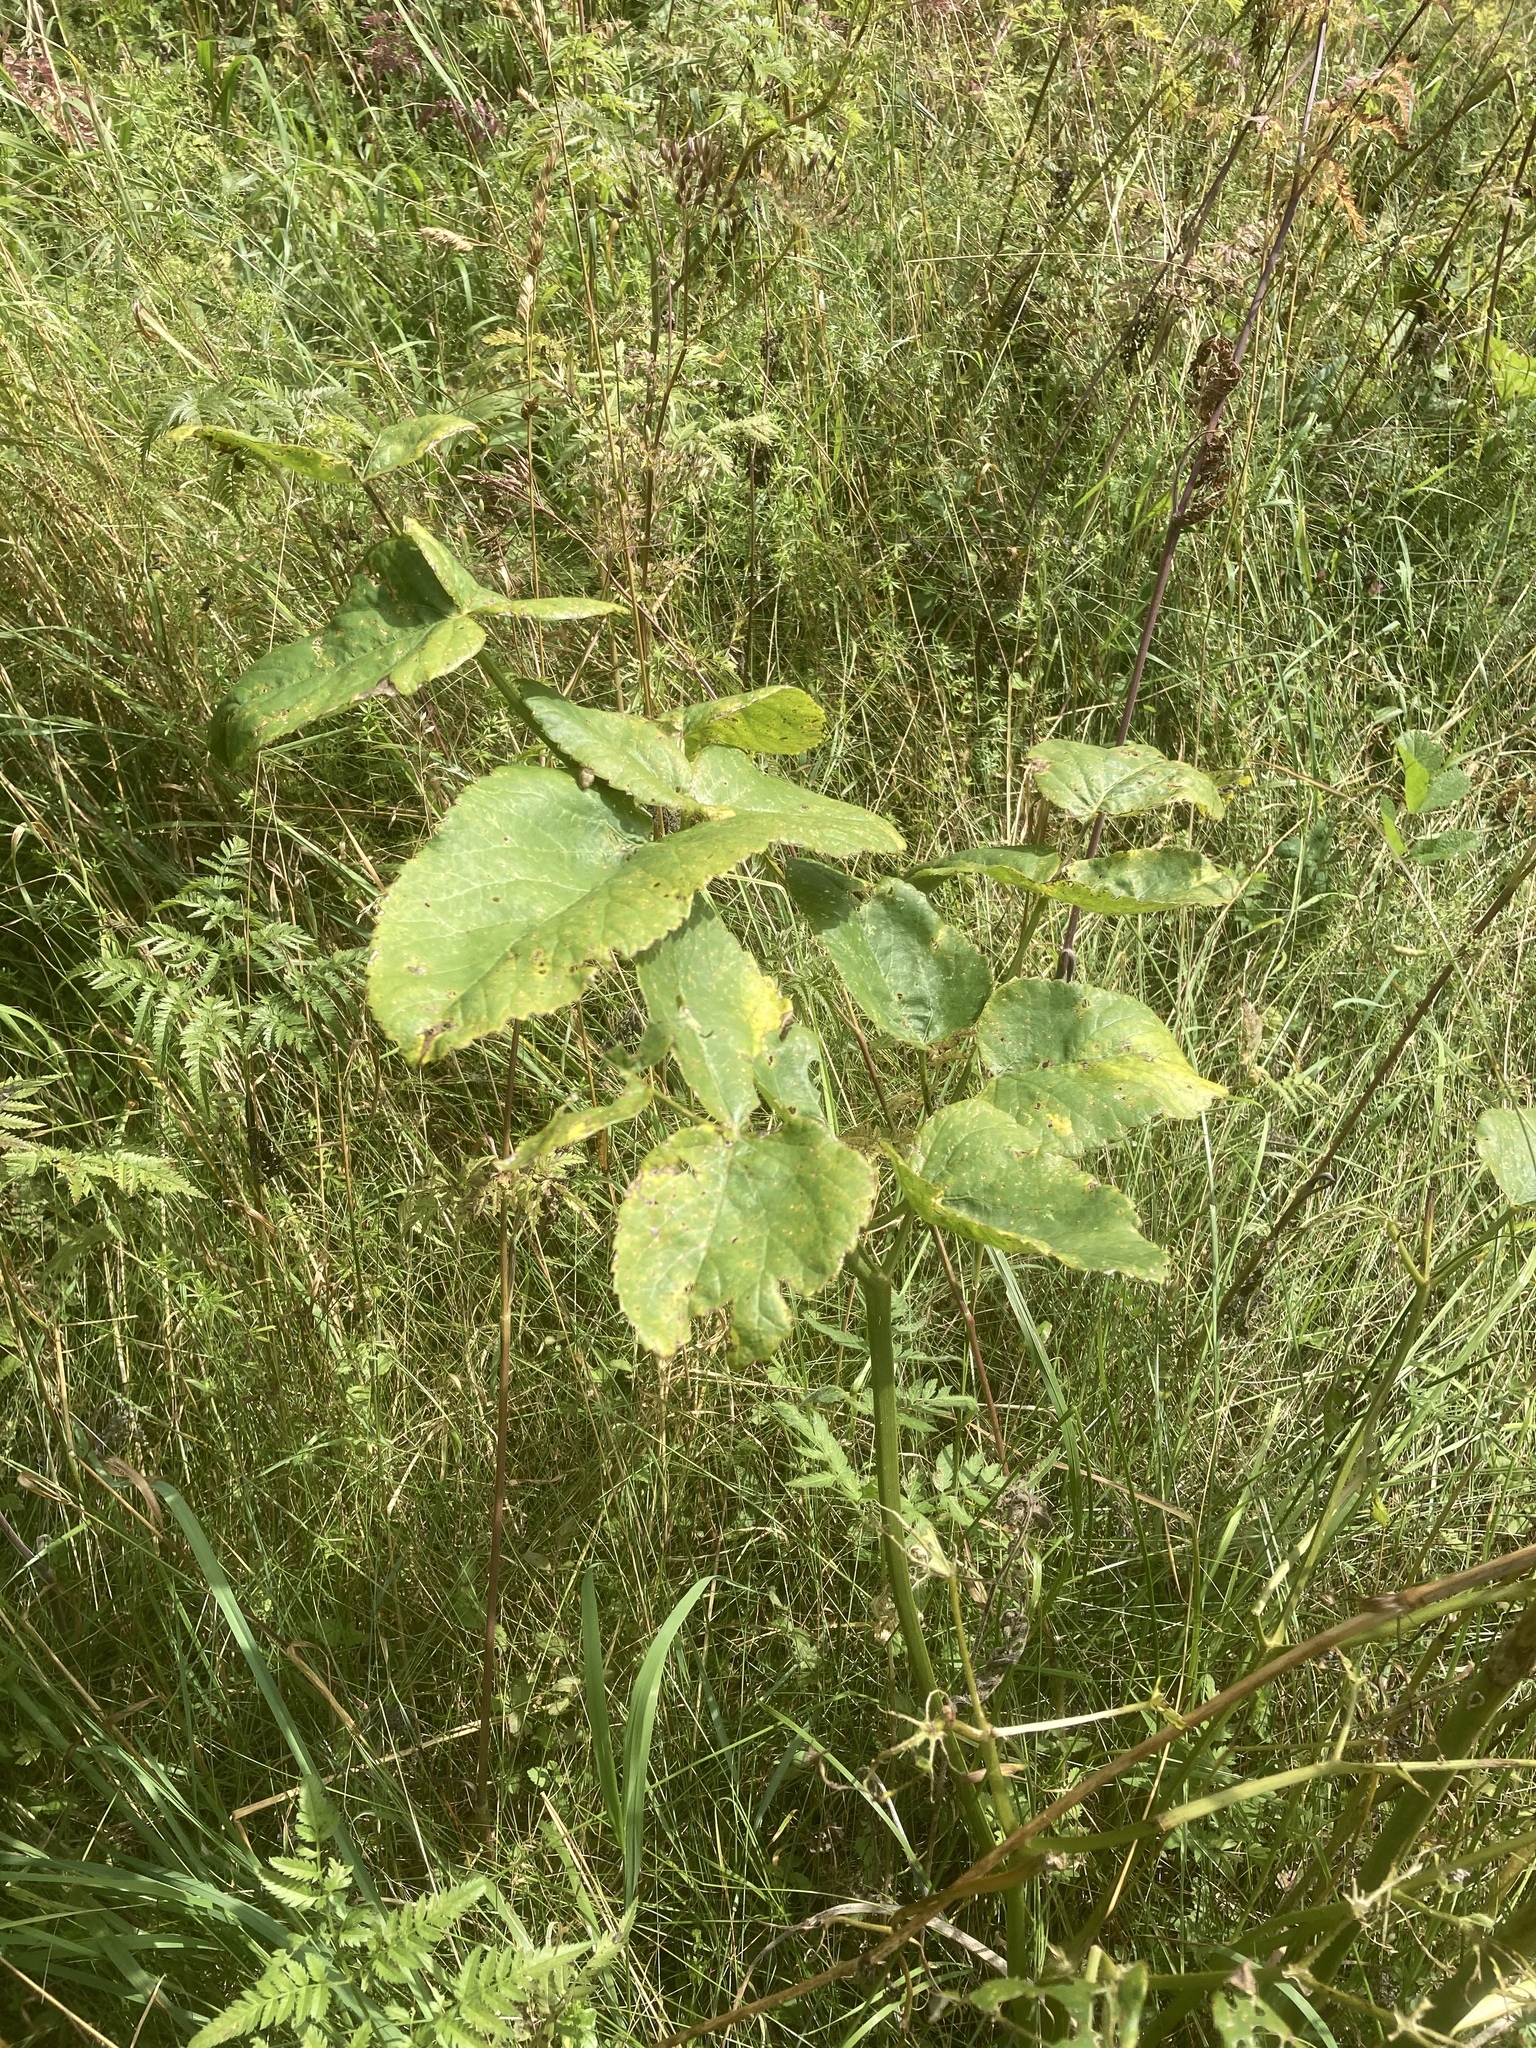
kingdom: Plantae
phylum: Tracheophyta
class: Magnoliopsida
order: Apiales
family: Apiaceae
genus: Laserpitium
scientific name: Laserpitium latifolium
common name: Broadleaf sermountain
